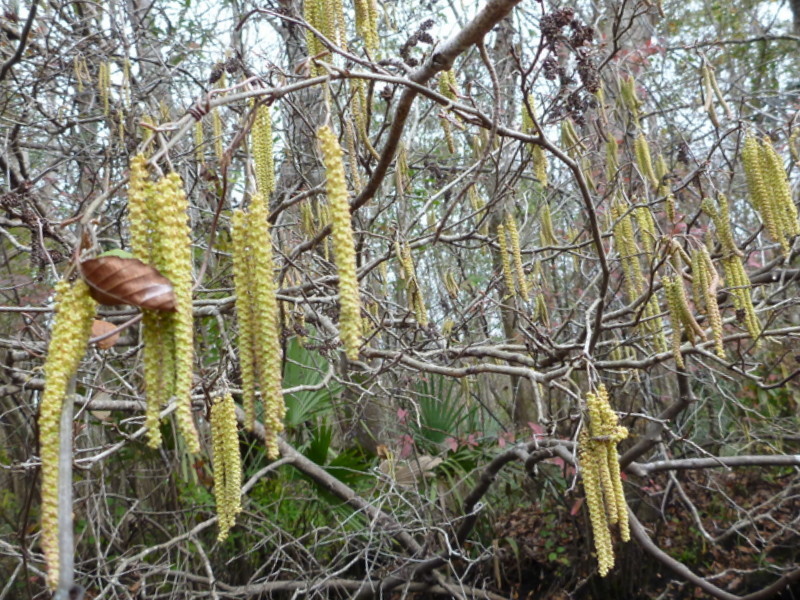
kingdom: Plantae
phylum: Tracheophyta
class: Magnoliopsida
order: Fagales
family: Betulaceae
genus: Alnus
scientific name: Alnus serrulata
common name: Hazel alder
